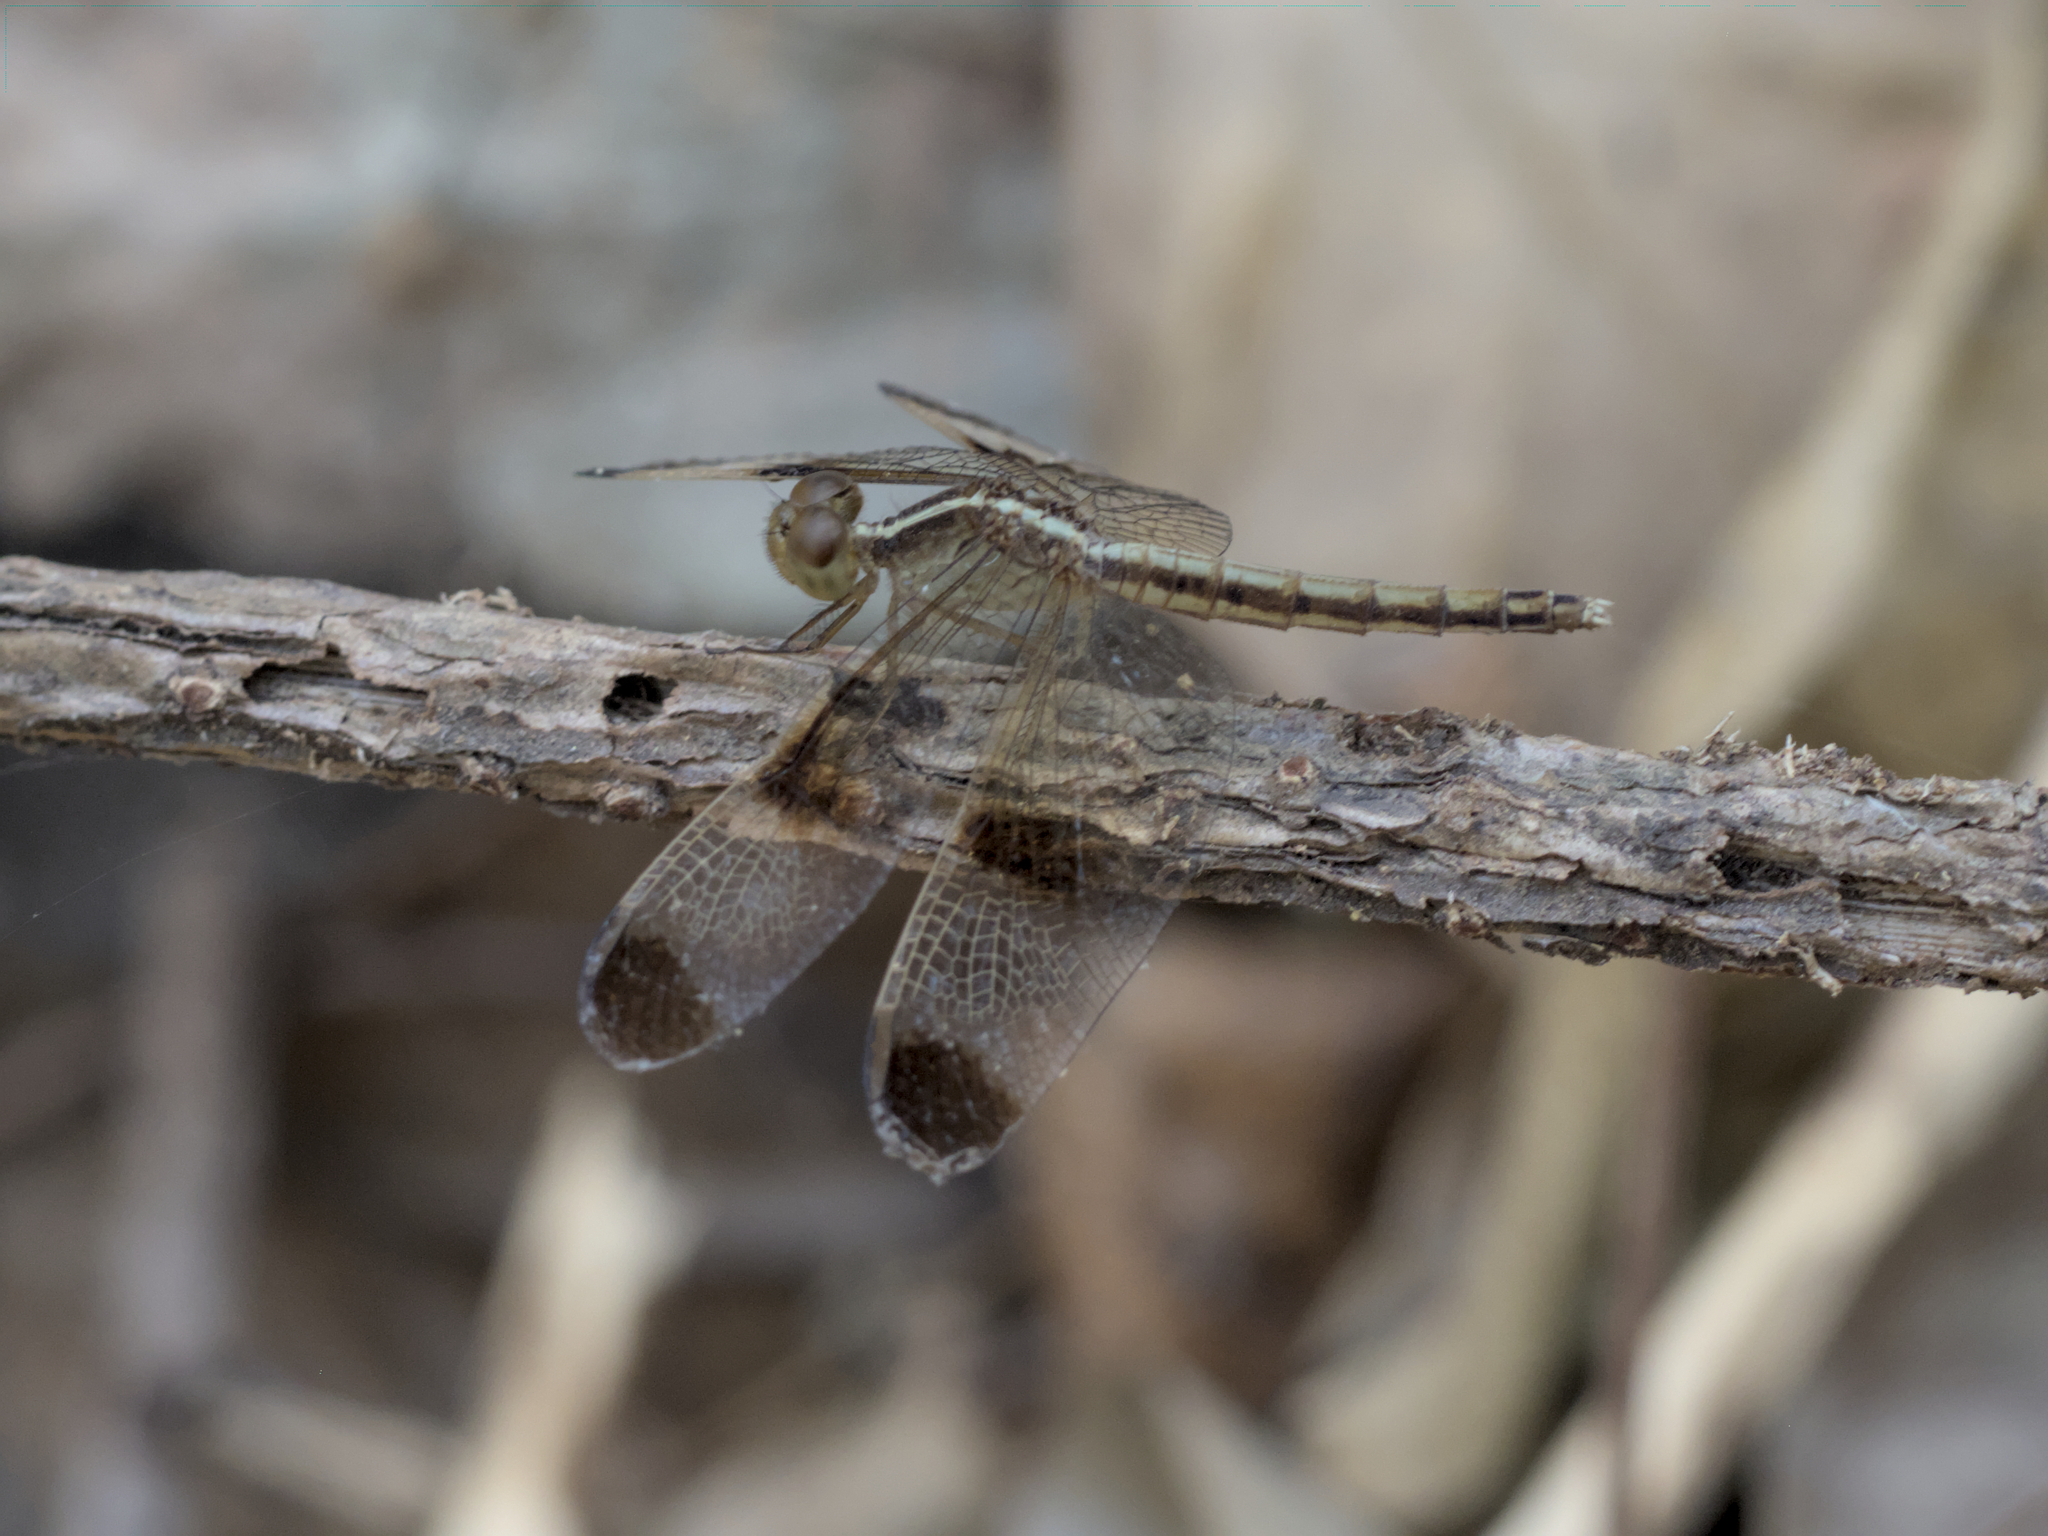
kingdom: Animalia
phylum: Arthropoda
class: Insecta
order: Odonata
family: Libellulidae
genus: Neurothemis
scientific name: Neurothemis tullia
